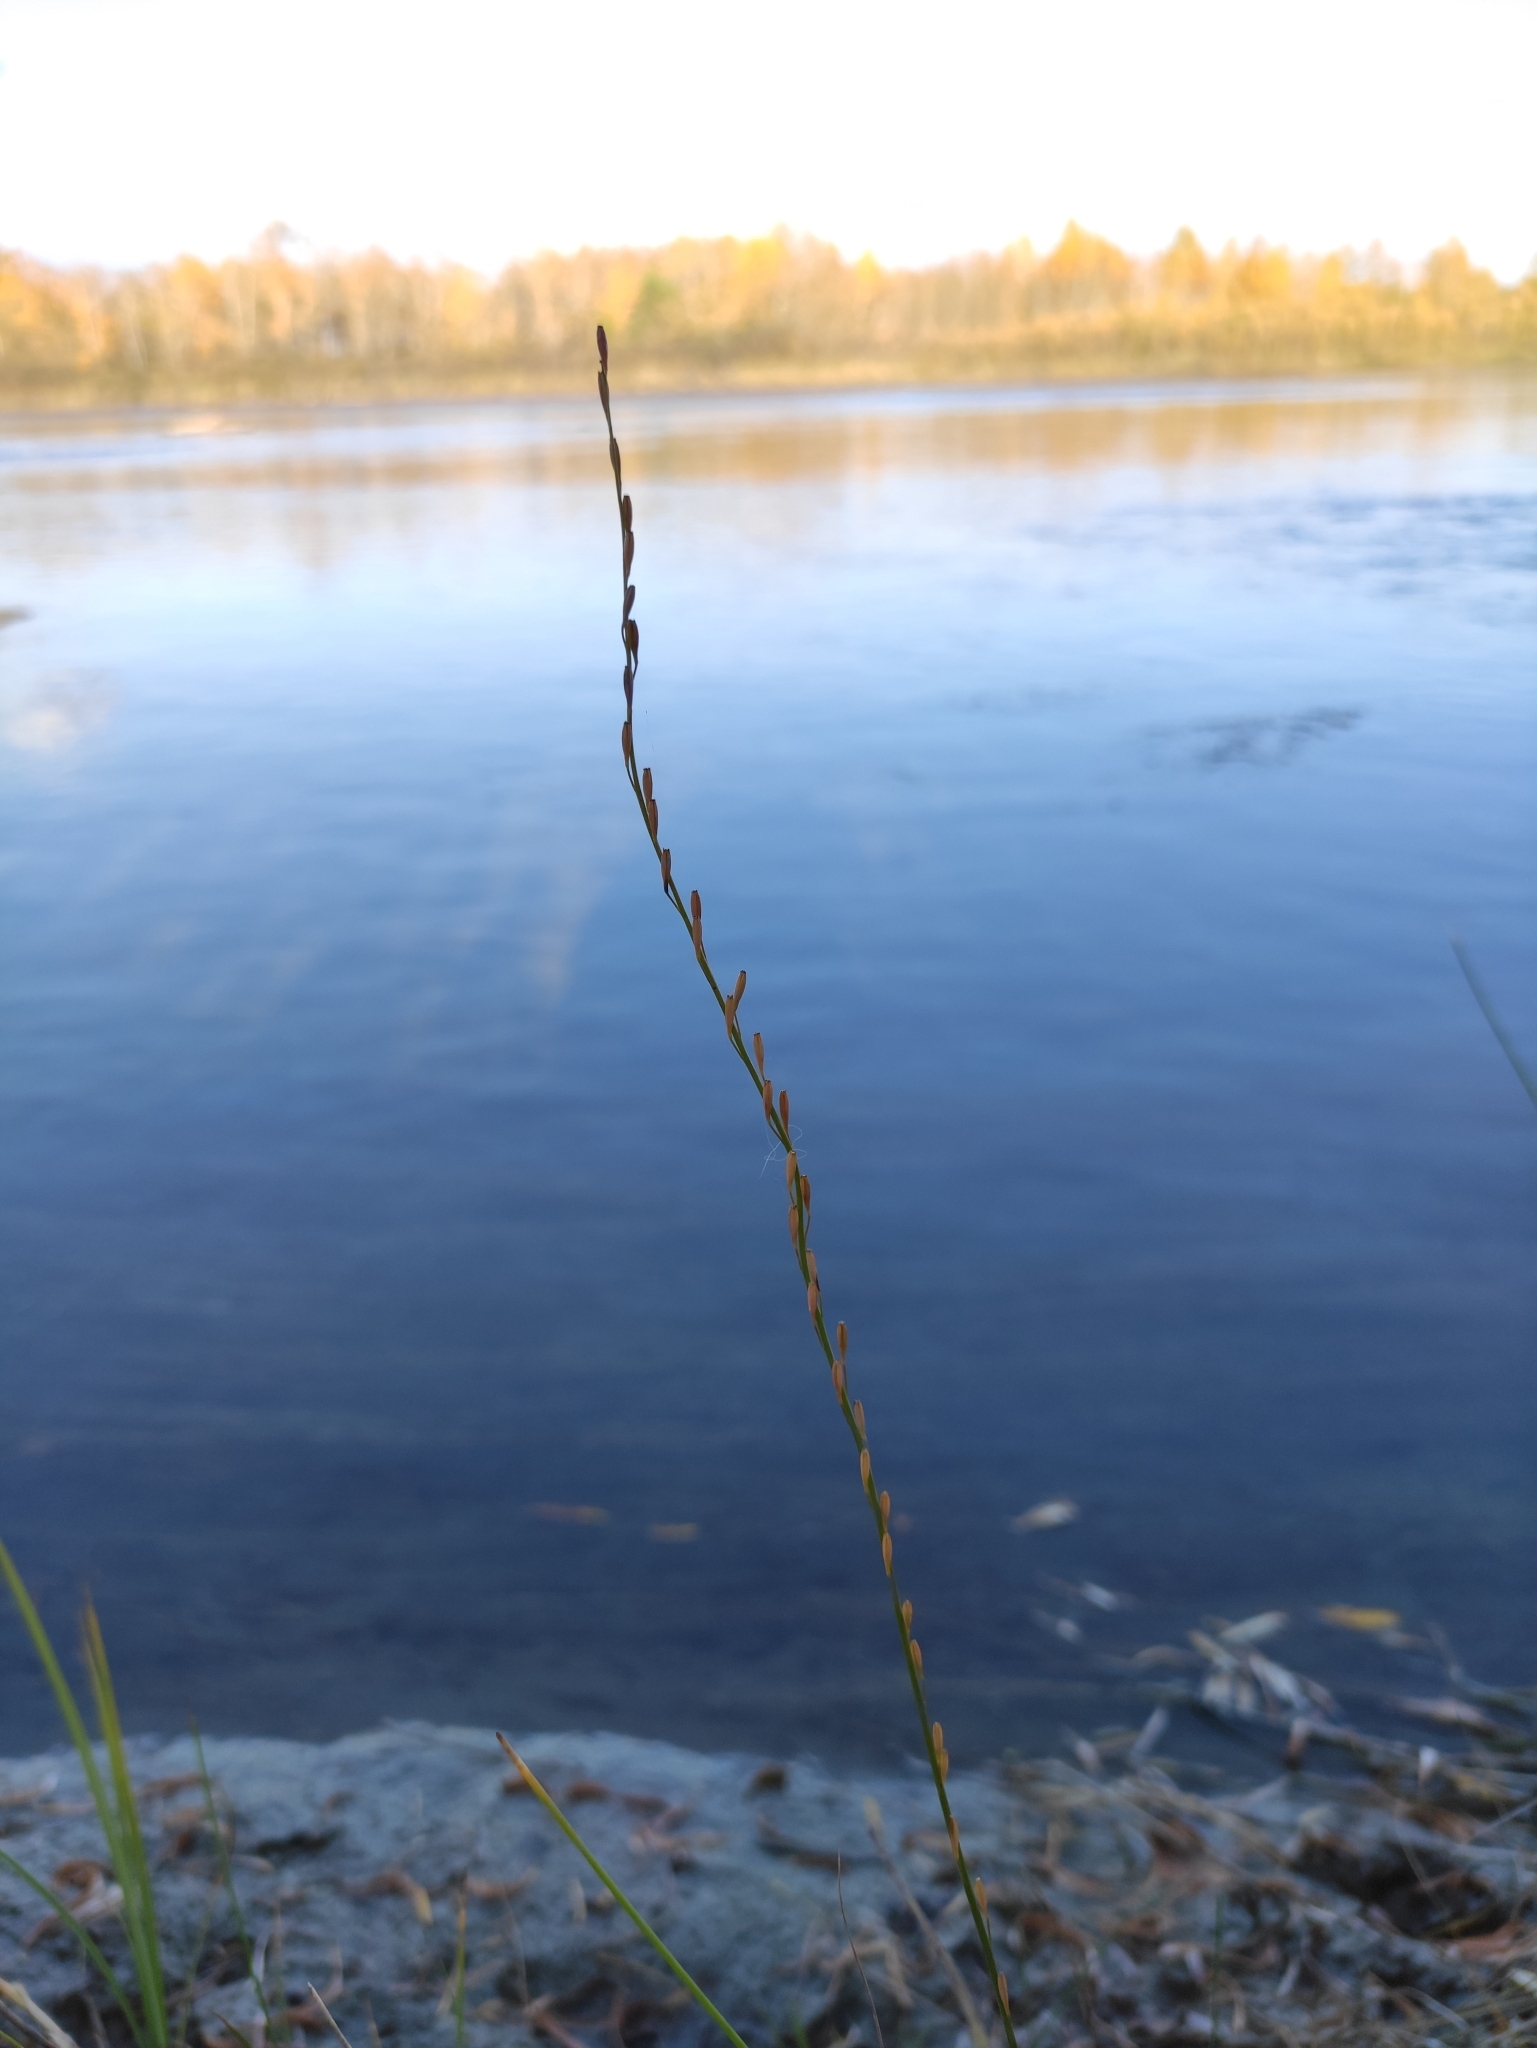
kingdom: Plantae
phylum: Tracheophyta
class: Liliopsida
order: Alismatales
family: Juncaginaceae
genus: Triglochin
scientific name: Triglochin palustris
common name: Marsh arrowgrass
